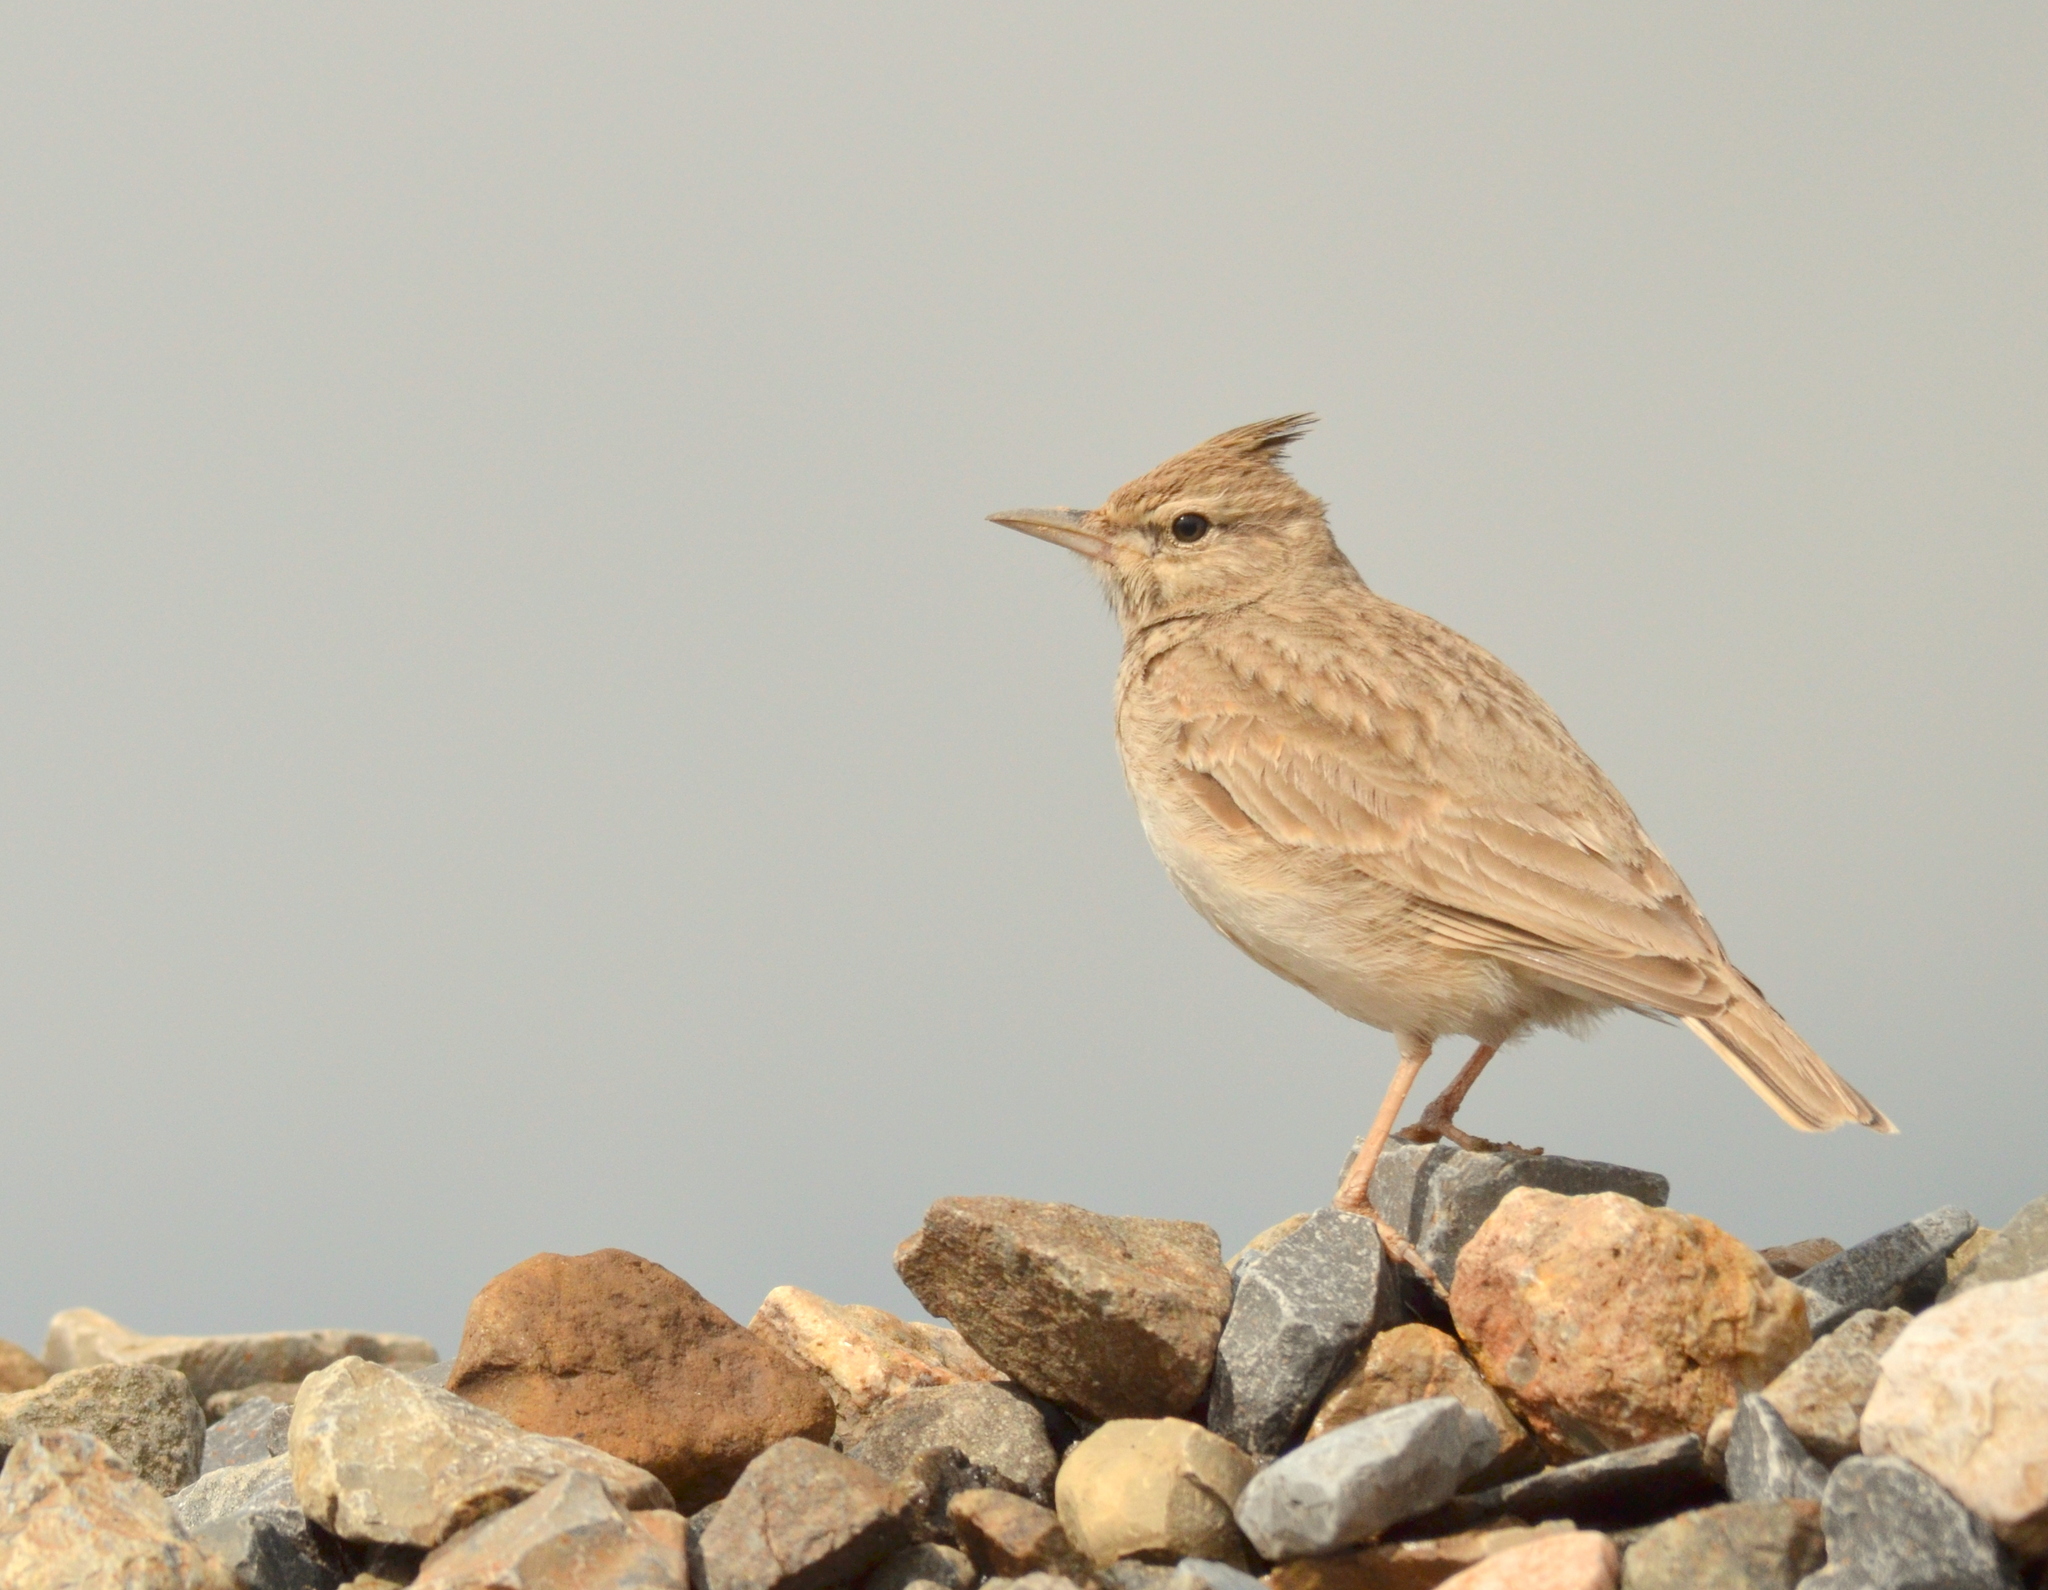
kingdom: Animalia
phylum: Chordata
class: Aves
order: Passeriformes
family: Alaudidae
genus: Galerida
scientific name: Galerida cristata
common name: Crested lark
